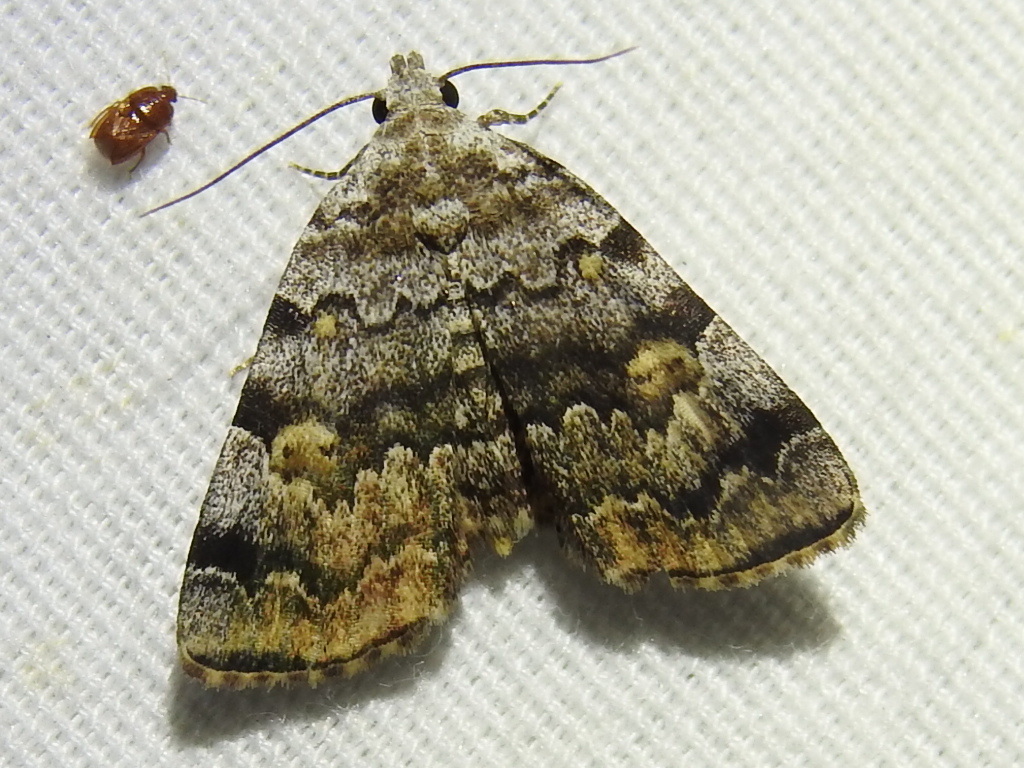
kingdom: Animalia
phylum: Arthropoda
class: Insecta
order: Lepidoptera
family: Erebidae
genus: Idia
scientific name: Idia americalis
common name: American idia moth
